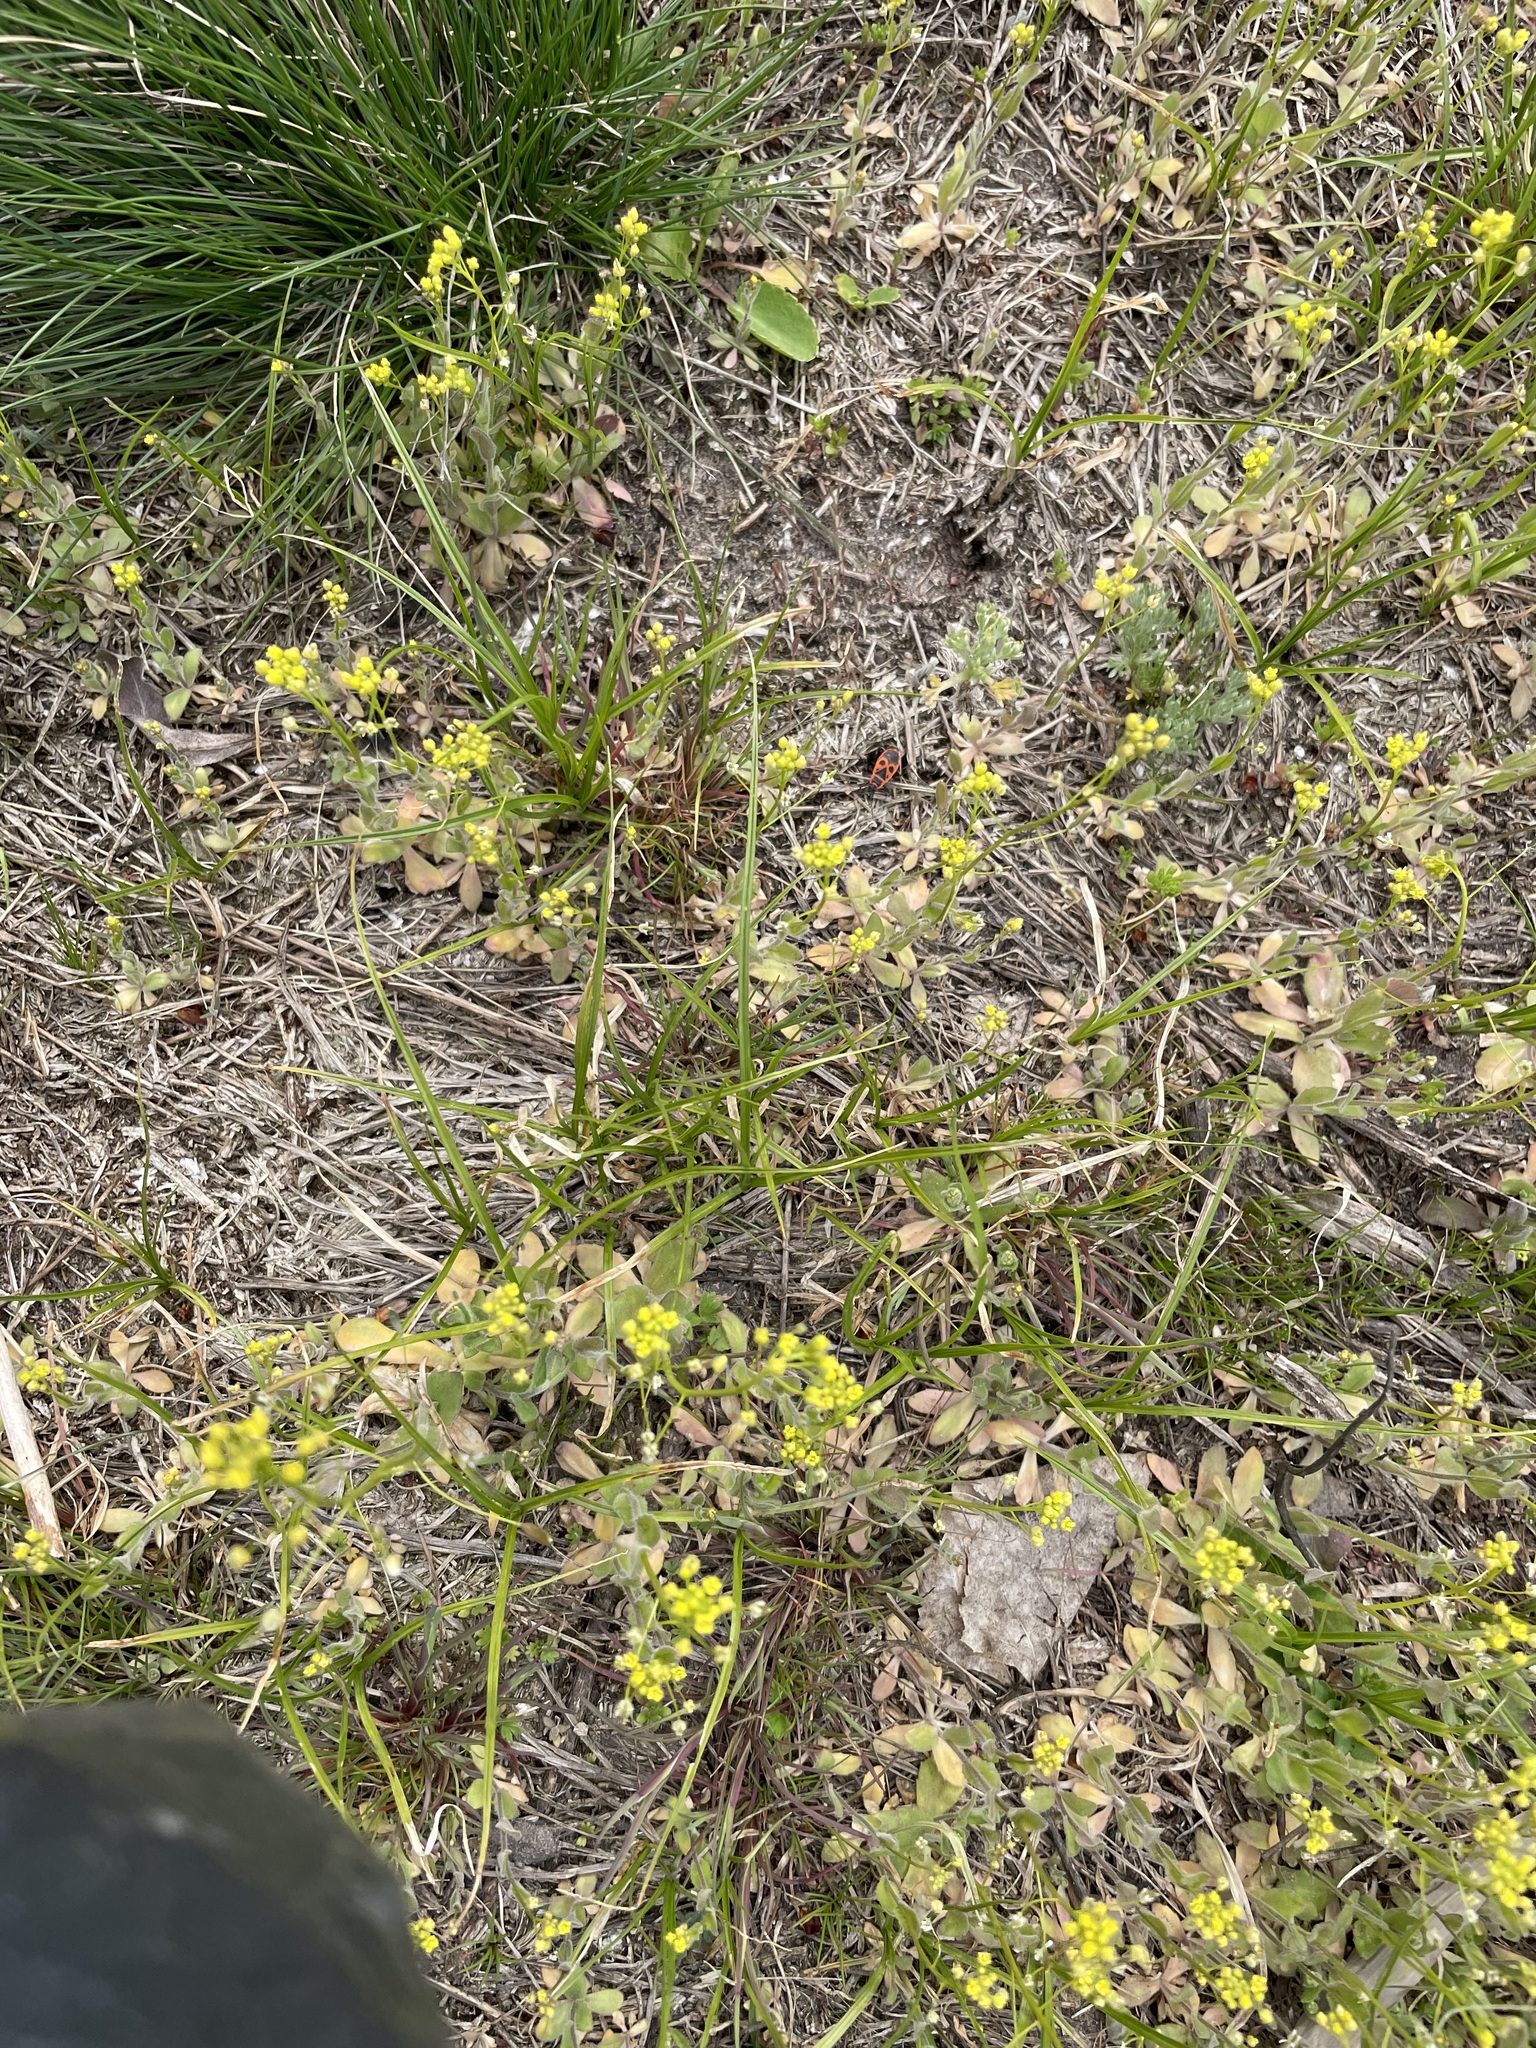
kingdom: Plantae
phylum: Tracheophyta
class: Magnoliopsida
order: Brassicales
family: Brassicaceae
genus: Draba
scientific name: Draba nemorosa
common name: Wood whitlow-grass
